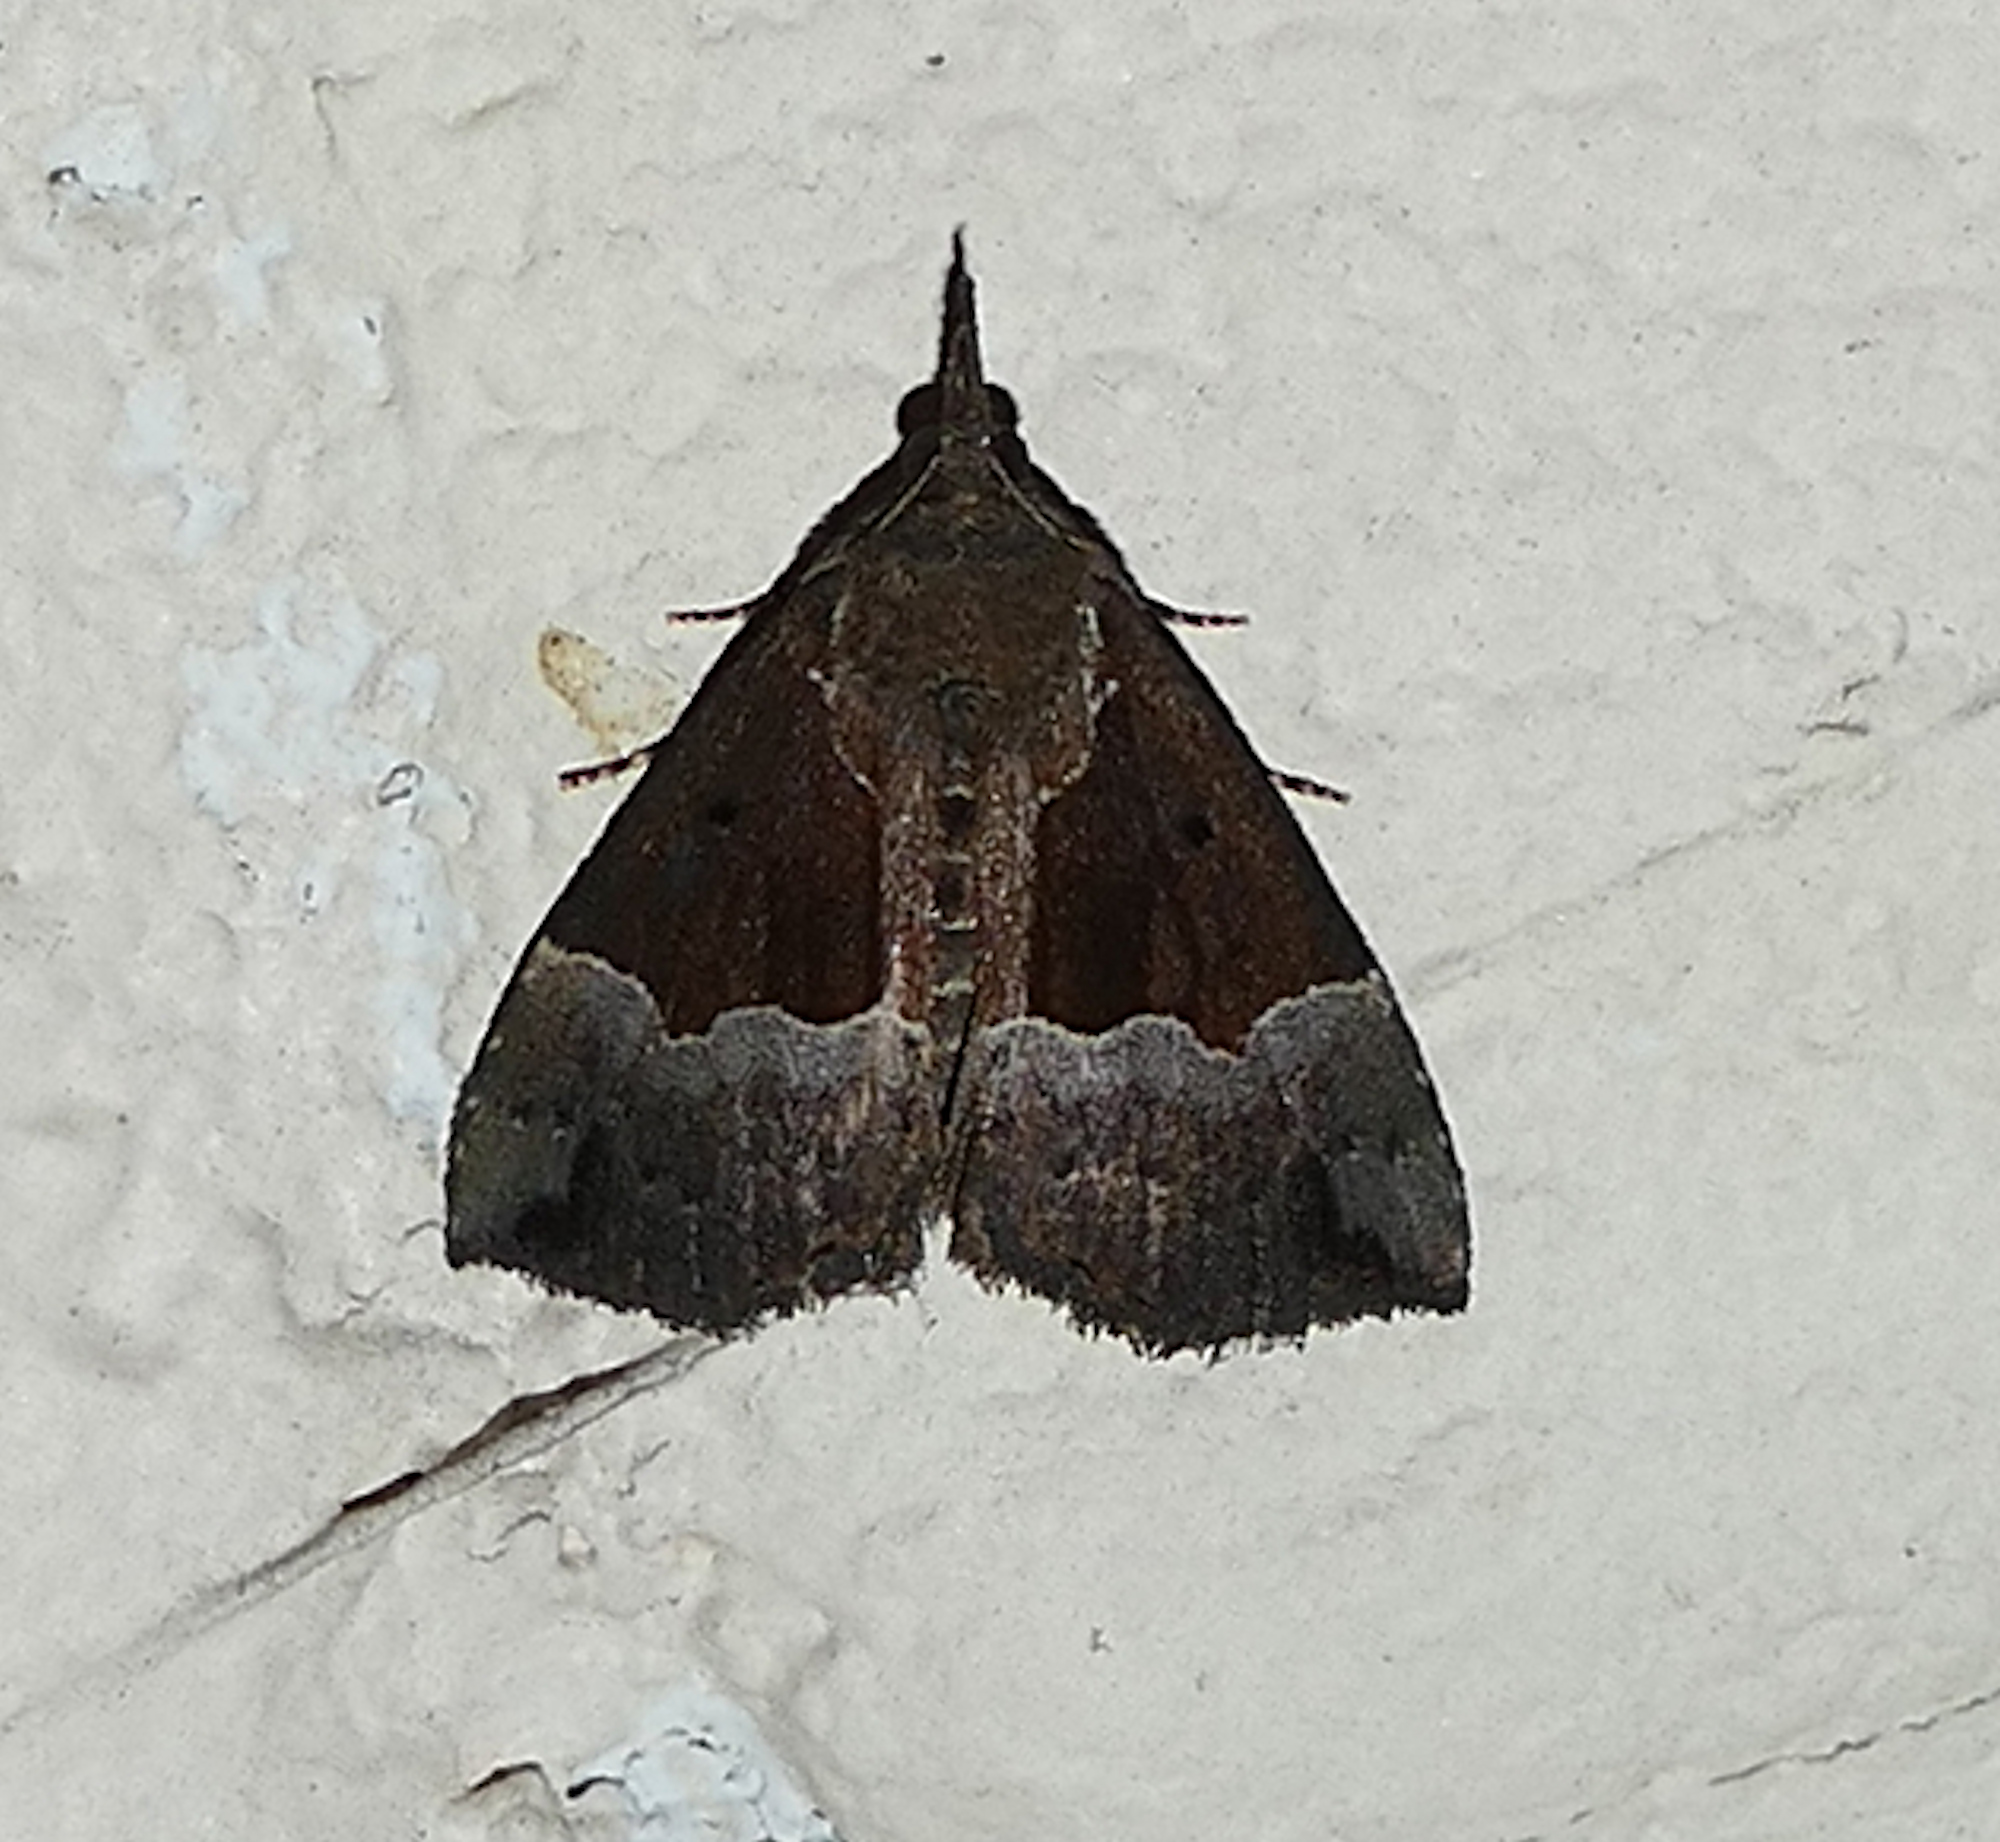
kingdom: Animalia
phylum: Arthropoda
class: Insecta
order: Lepidoptera
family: Erebidae
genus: Hypena
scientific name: Hypena bijugalis
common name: Dimorphic bomolocha moth
